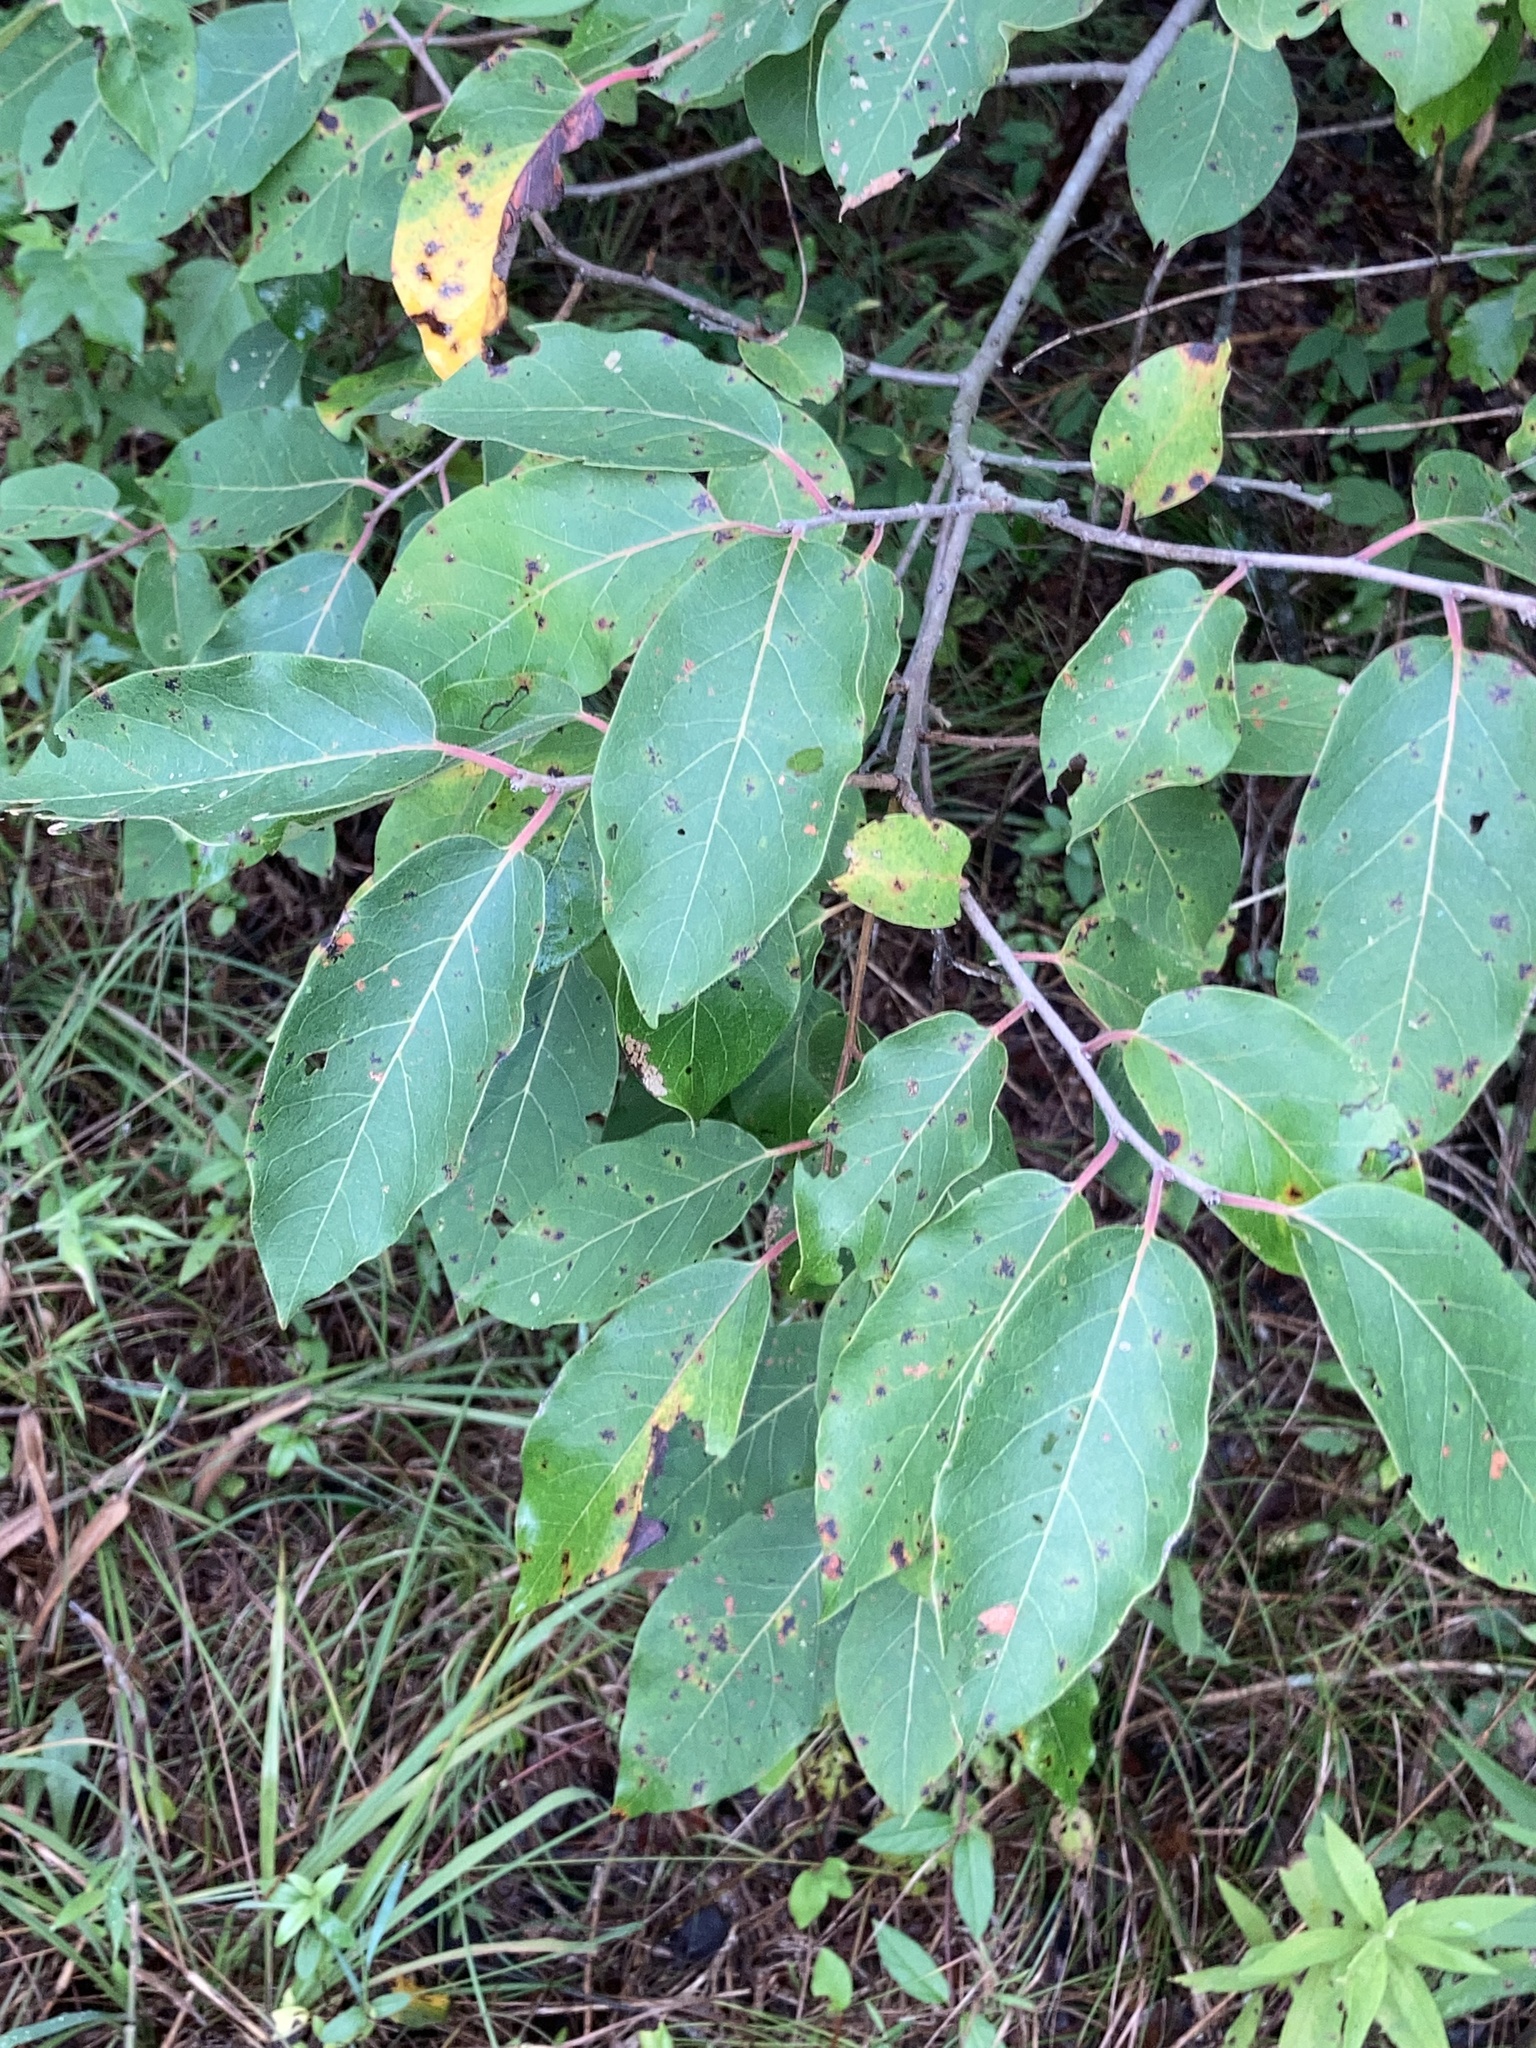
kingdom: Plantae
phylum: Tracheophyta
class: Magnoliopsida
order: Ericales
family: Ebenaceae
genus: Diospyros
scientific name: Diospyros virginiana
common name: Persimmon
